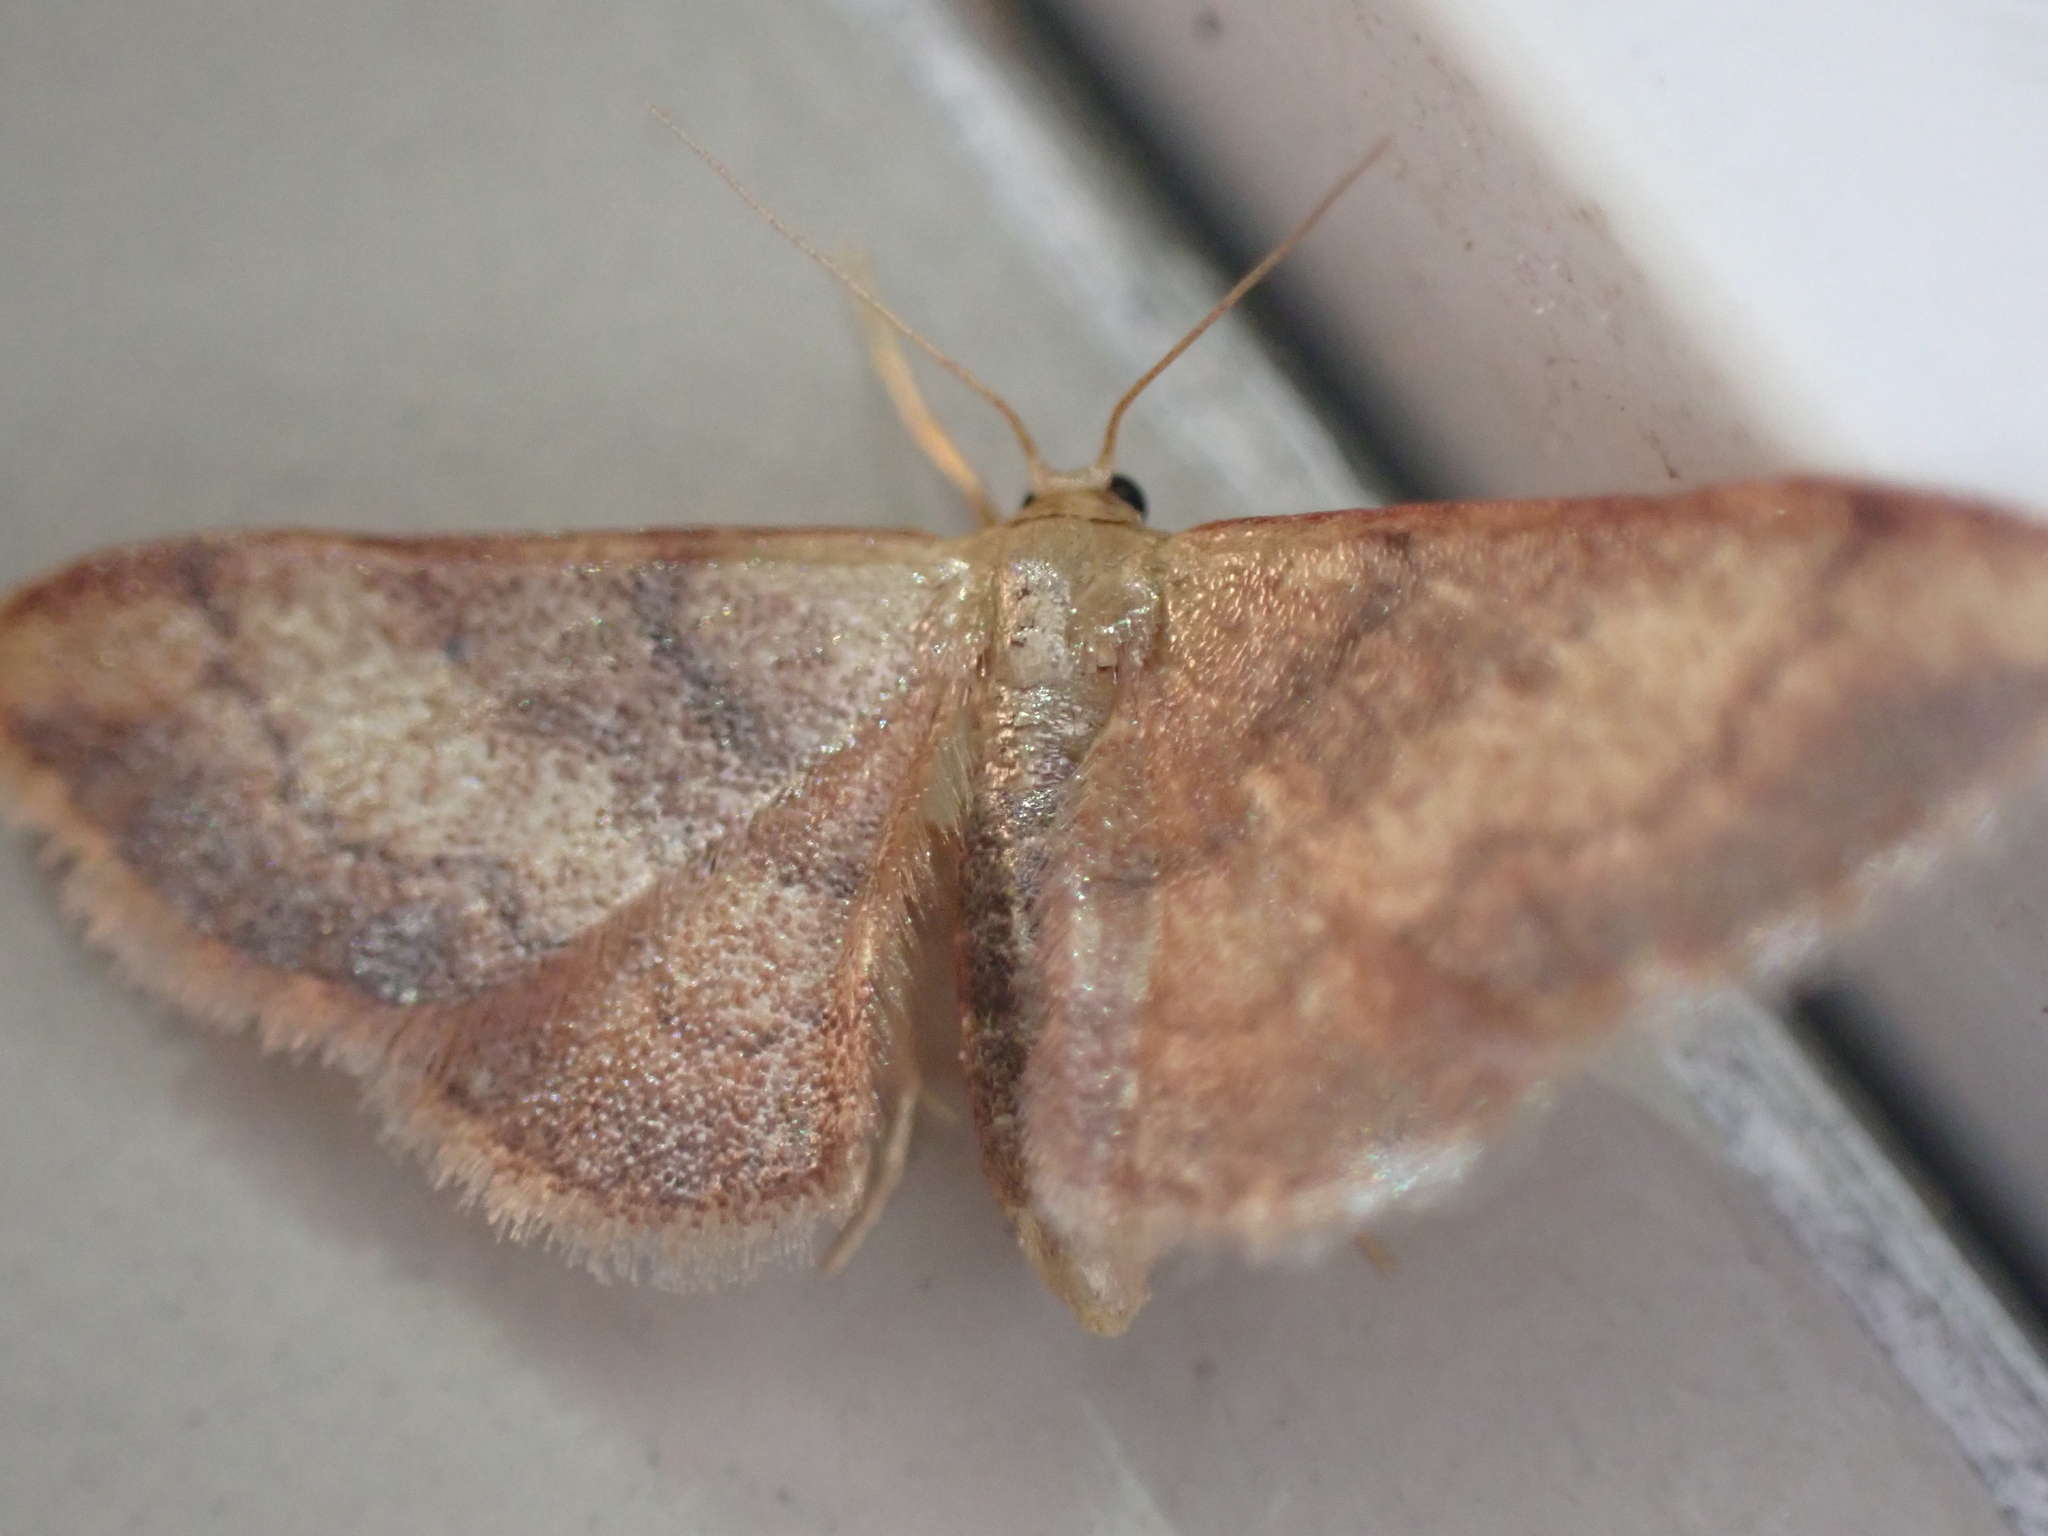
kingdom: Animalia
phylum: Arthropoda
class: Insecta
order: Lepidoptera
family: Geometridae
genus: Idaea
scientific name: Idaea demissaria
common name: Red-bordered wave
